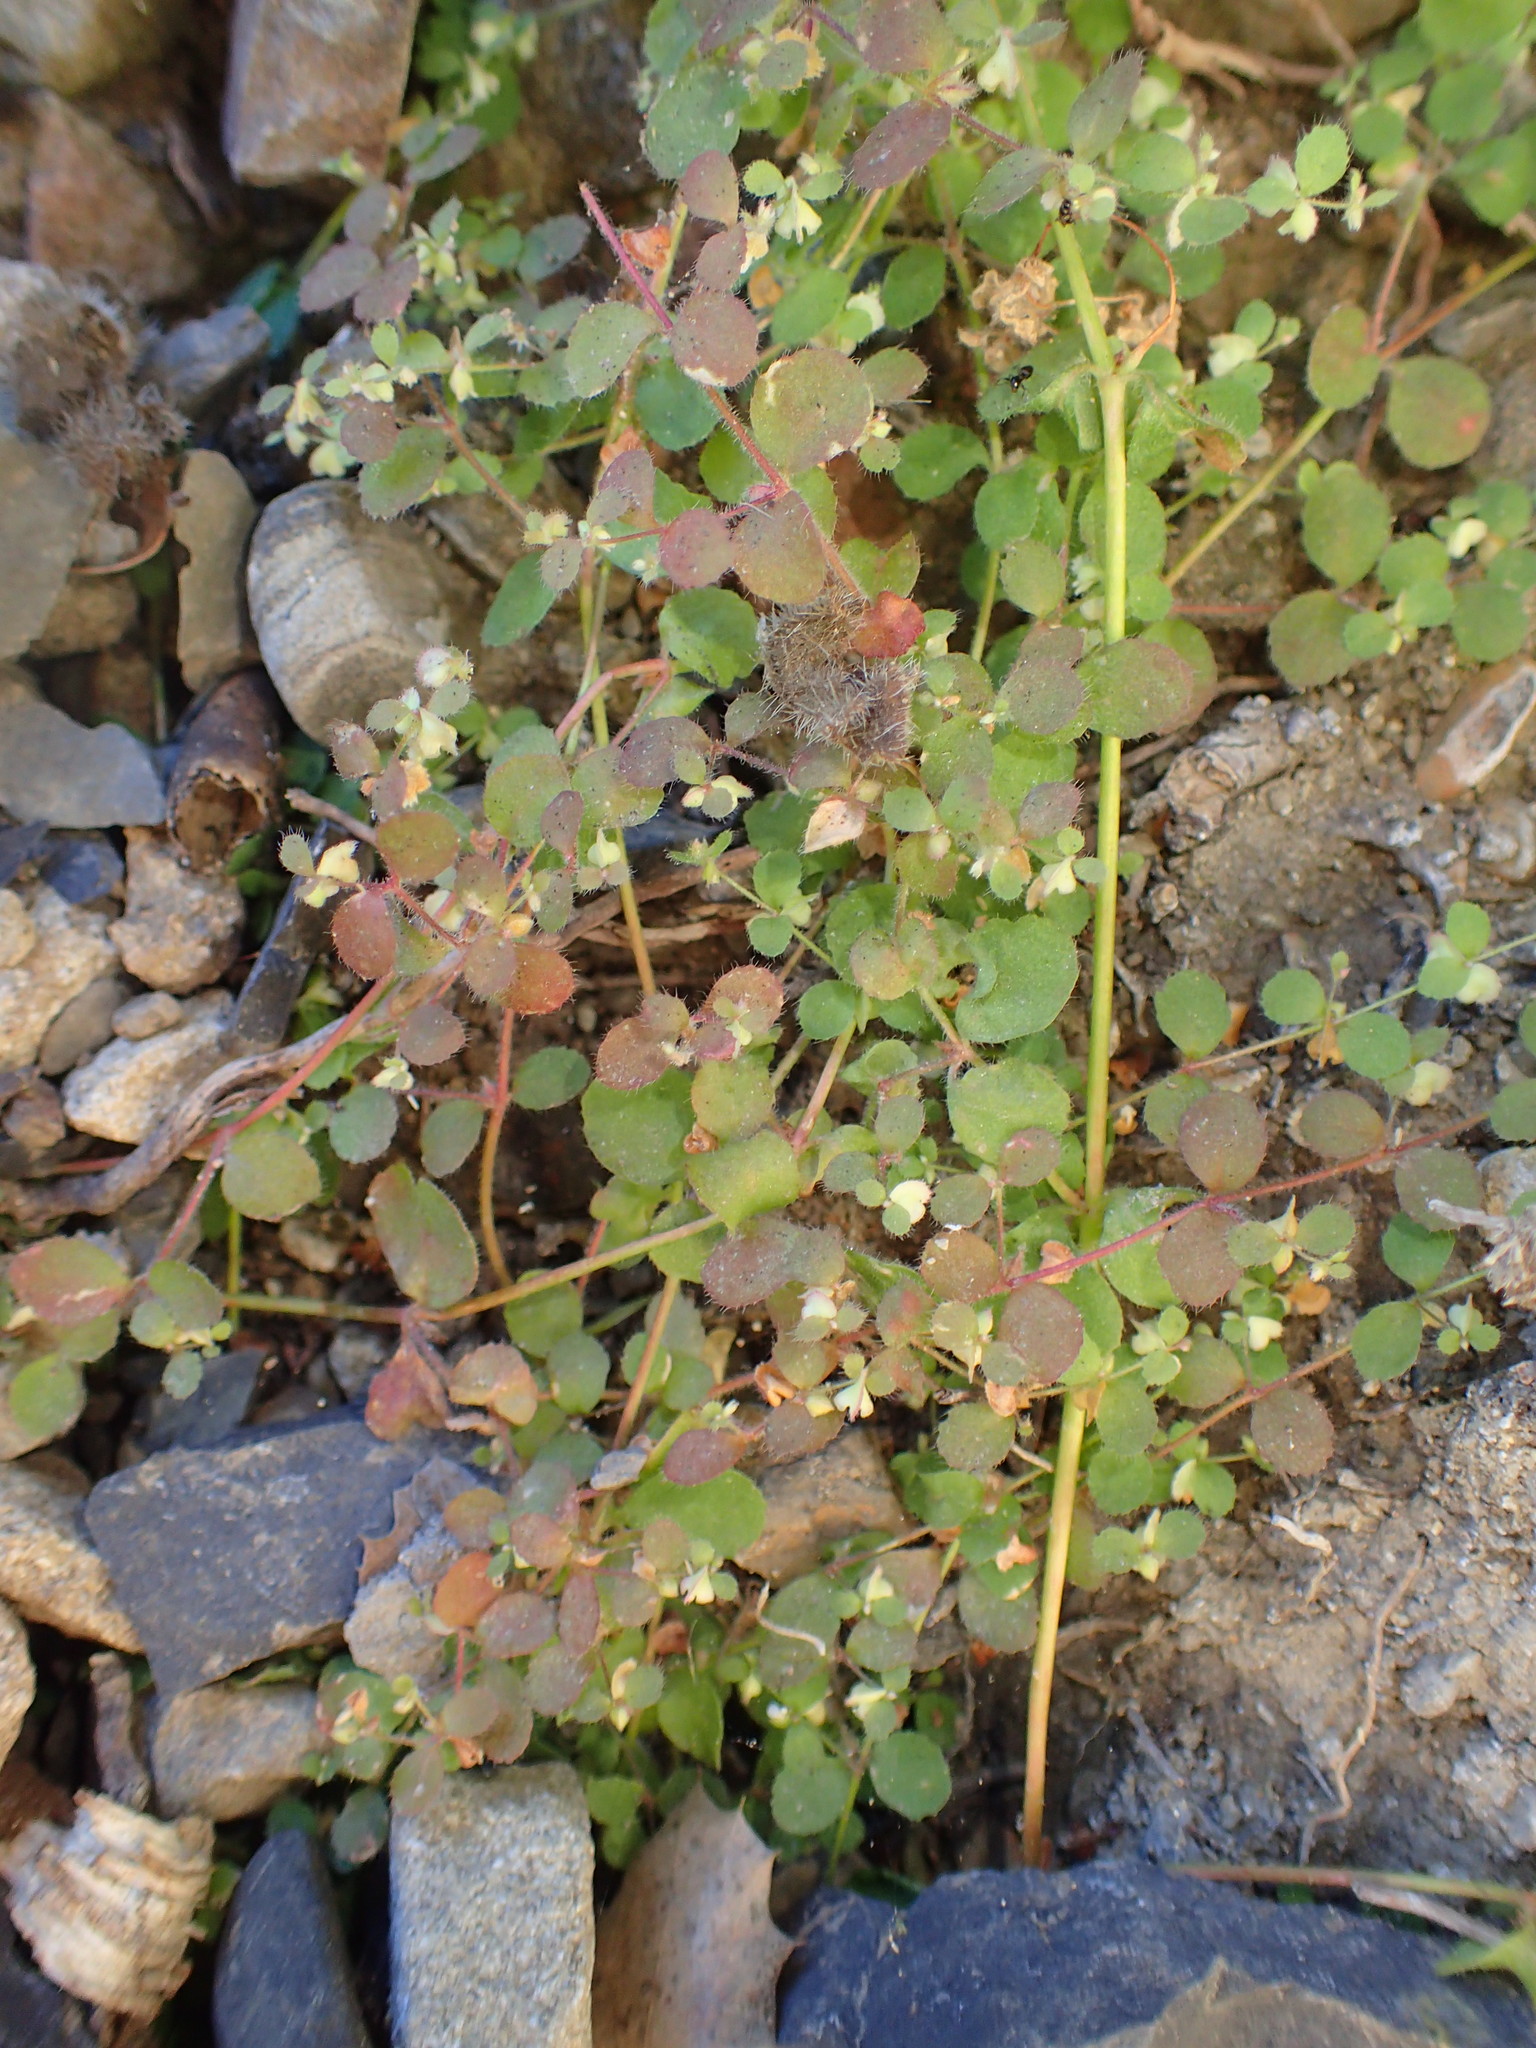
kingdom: Plantae
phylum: Tracheophyta
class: Magnoliopsida
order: Caryophyllales
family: Polygonaceae
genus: Pterostegia
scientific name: Pterostegia drymarioides
